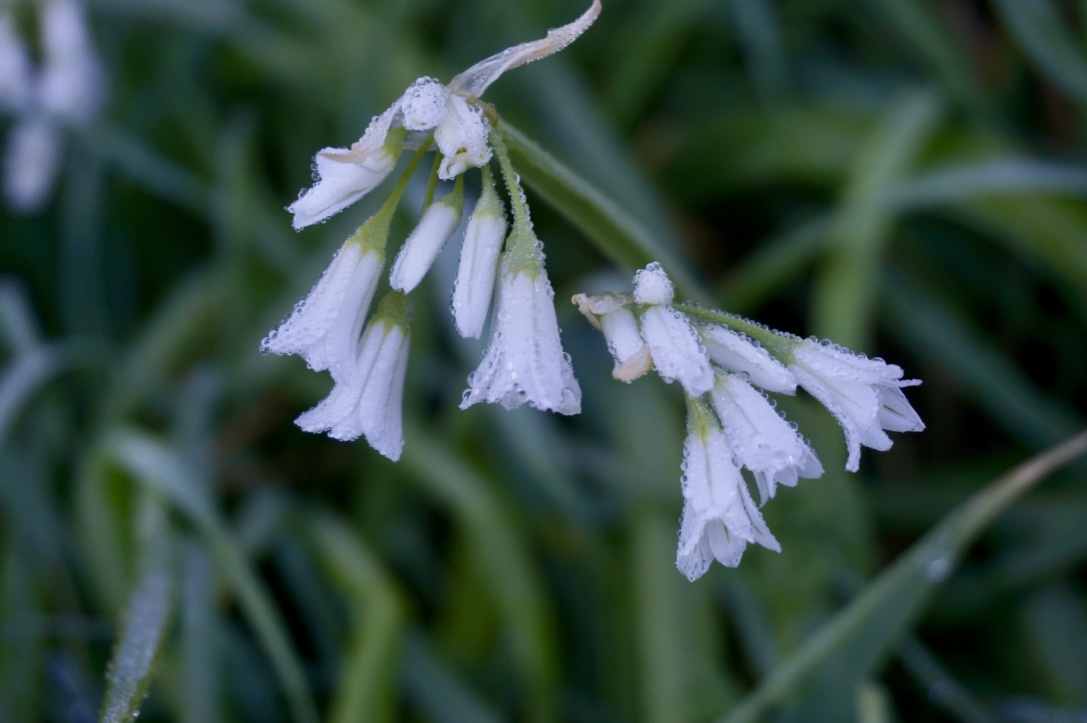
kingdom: Plantae
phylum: Tracheophyta
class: Liliopsida
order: Asparagales
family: Amaryllidaceae
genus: Allium
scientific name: Allium triquetrum
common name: Three-cornered garlic
